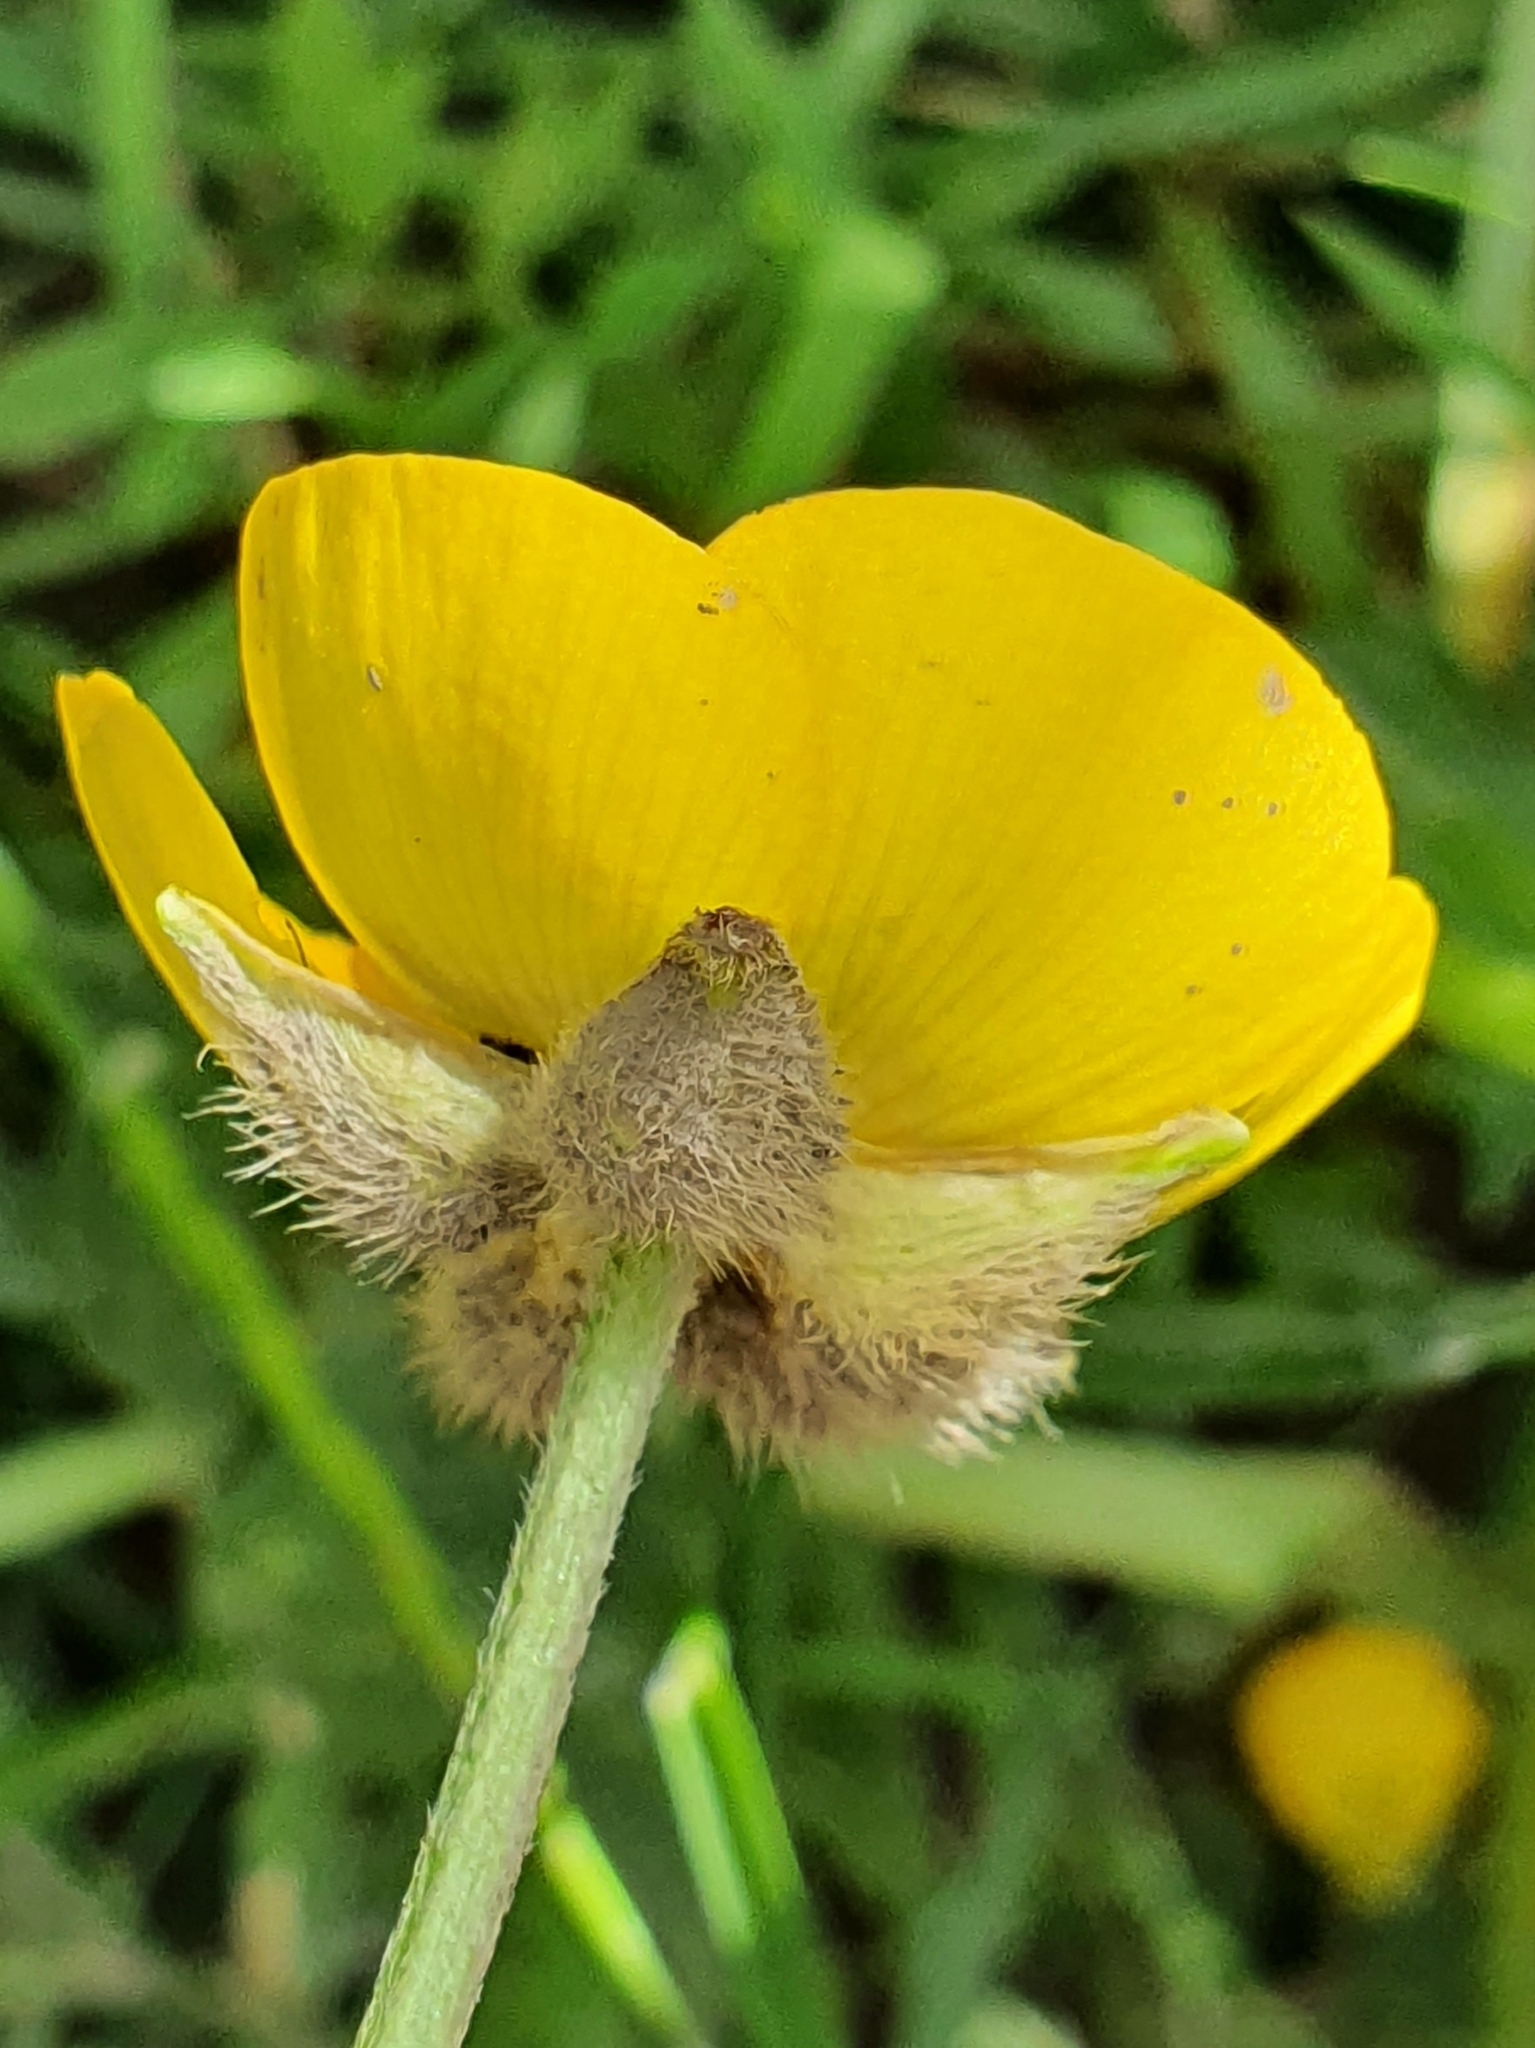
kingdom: Plantae
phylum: Tracheophyta
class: Magnoliopsida
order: Ranunculales
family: Ranunculaceae
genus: Ranunculus
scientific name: Ranunculus macrophyllus
